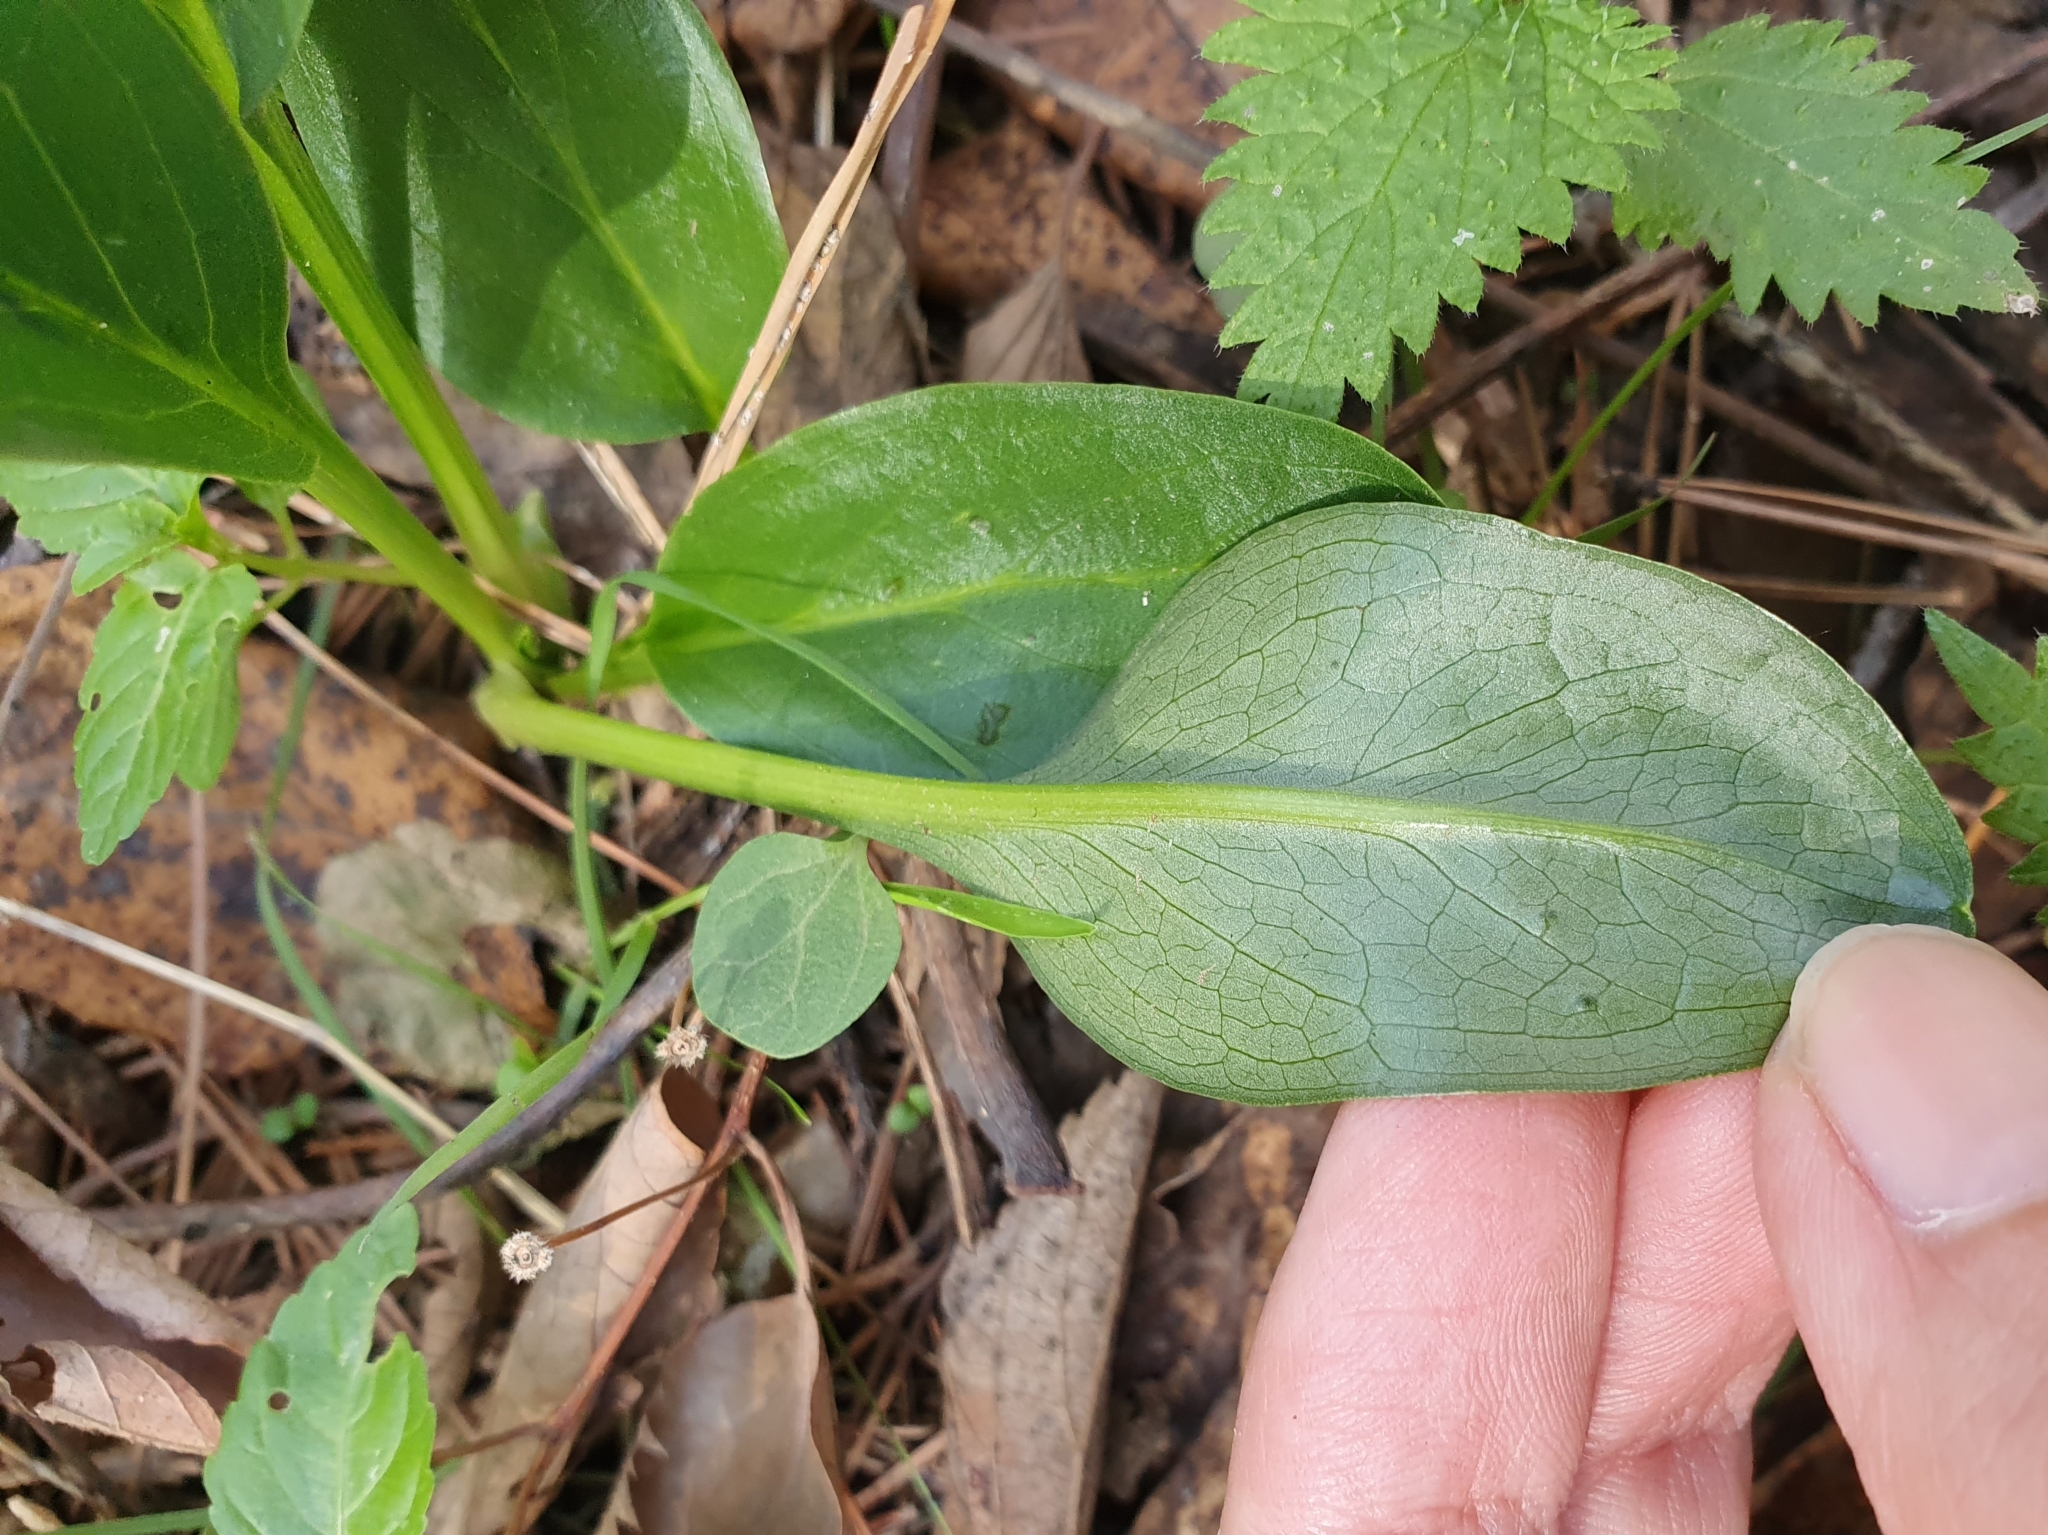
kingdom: Plantae
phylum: Tracheophyta
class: Liliopsida
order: Alismatales
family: Araceae
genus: Biarum
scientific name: Biarum dispar
